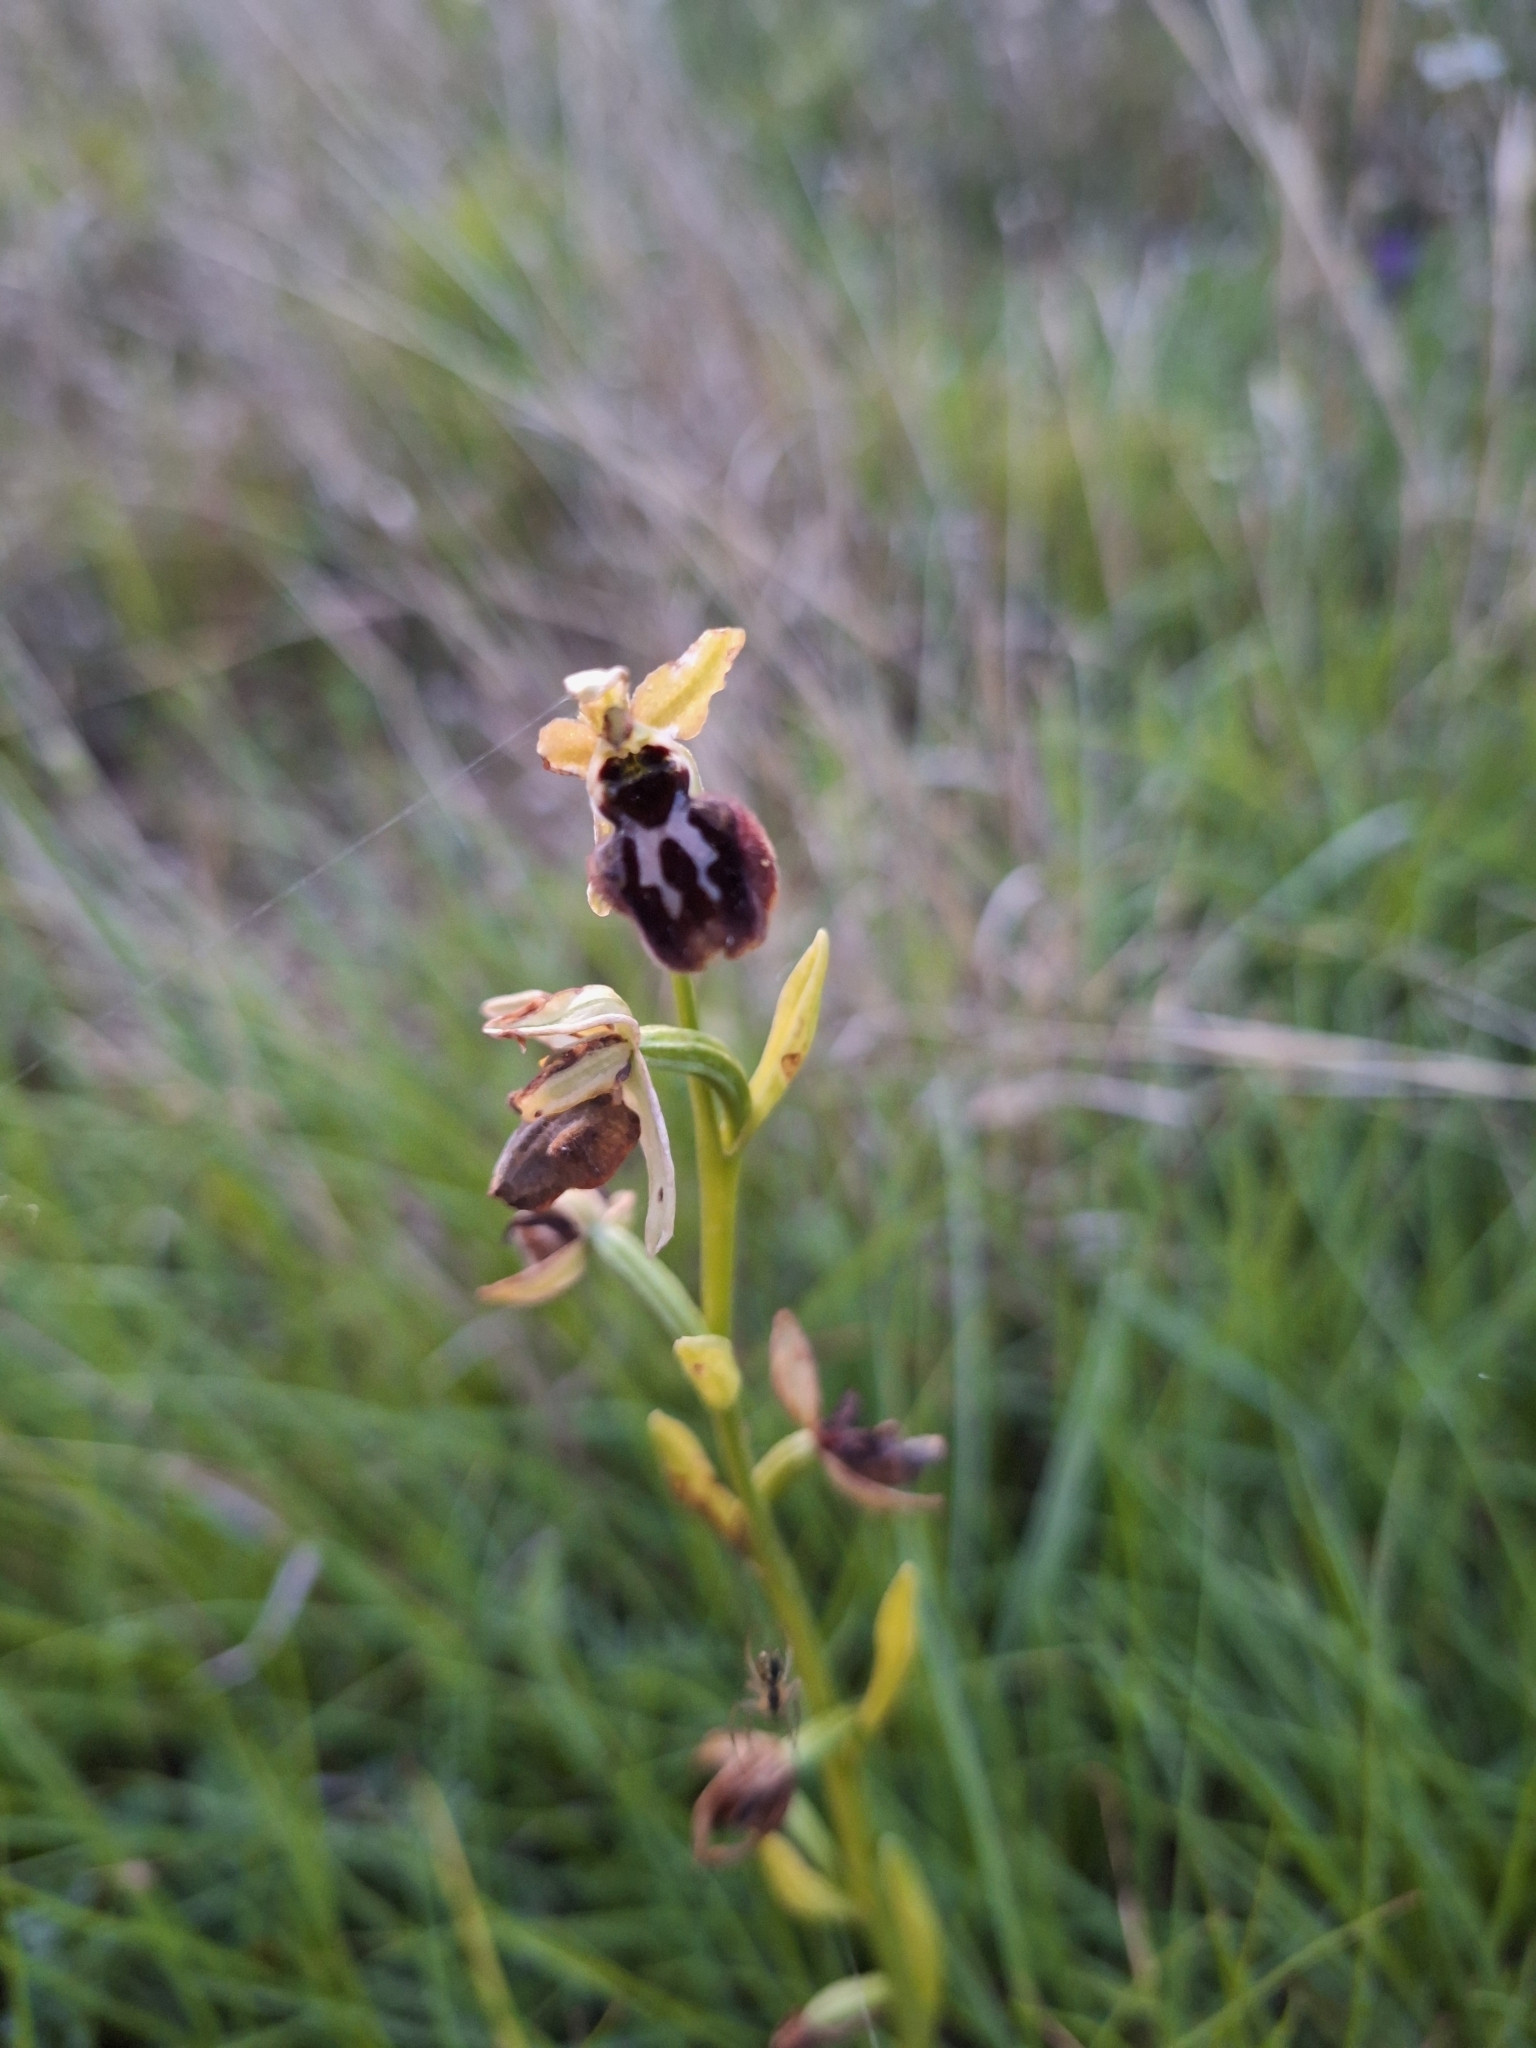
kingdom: Plantae
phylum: Tracheophyta
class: Liliopsida
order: Asparagales
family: Orchidaceae
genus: Ophrys
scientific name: Ophrys sphegodes
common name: Early spider-orchid
